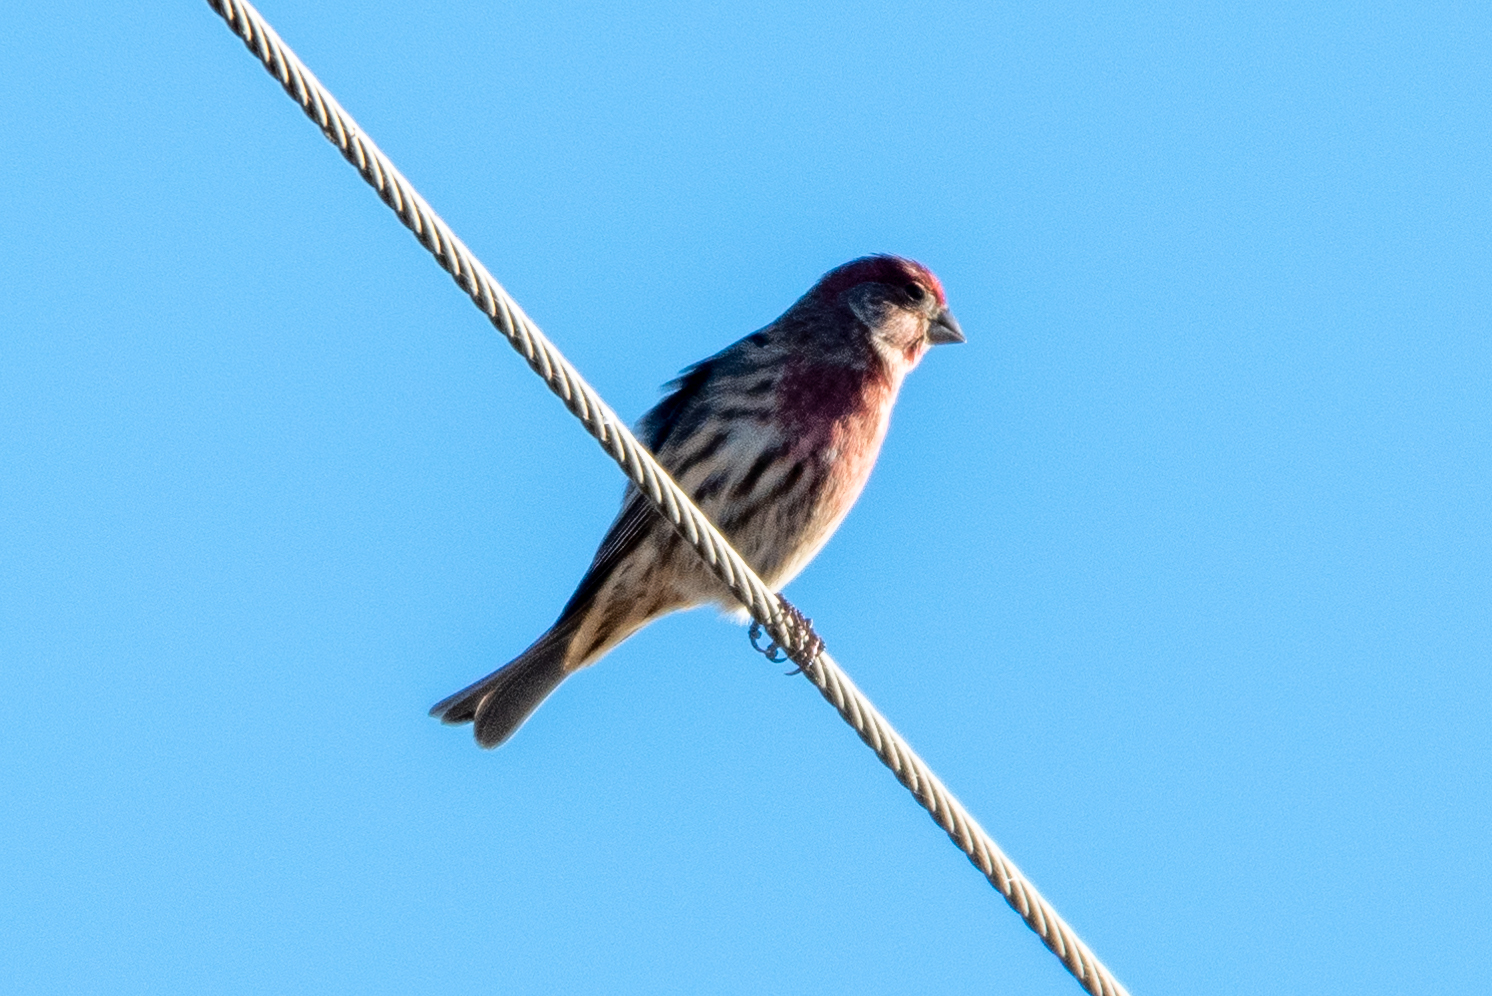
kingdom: Animalia
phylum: Chordata
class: Aves
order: Passeriformes
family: Fringillidae
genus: Haemorhous
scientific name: Haemorhous mexicanus
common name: House finch
